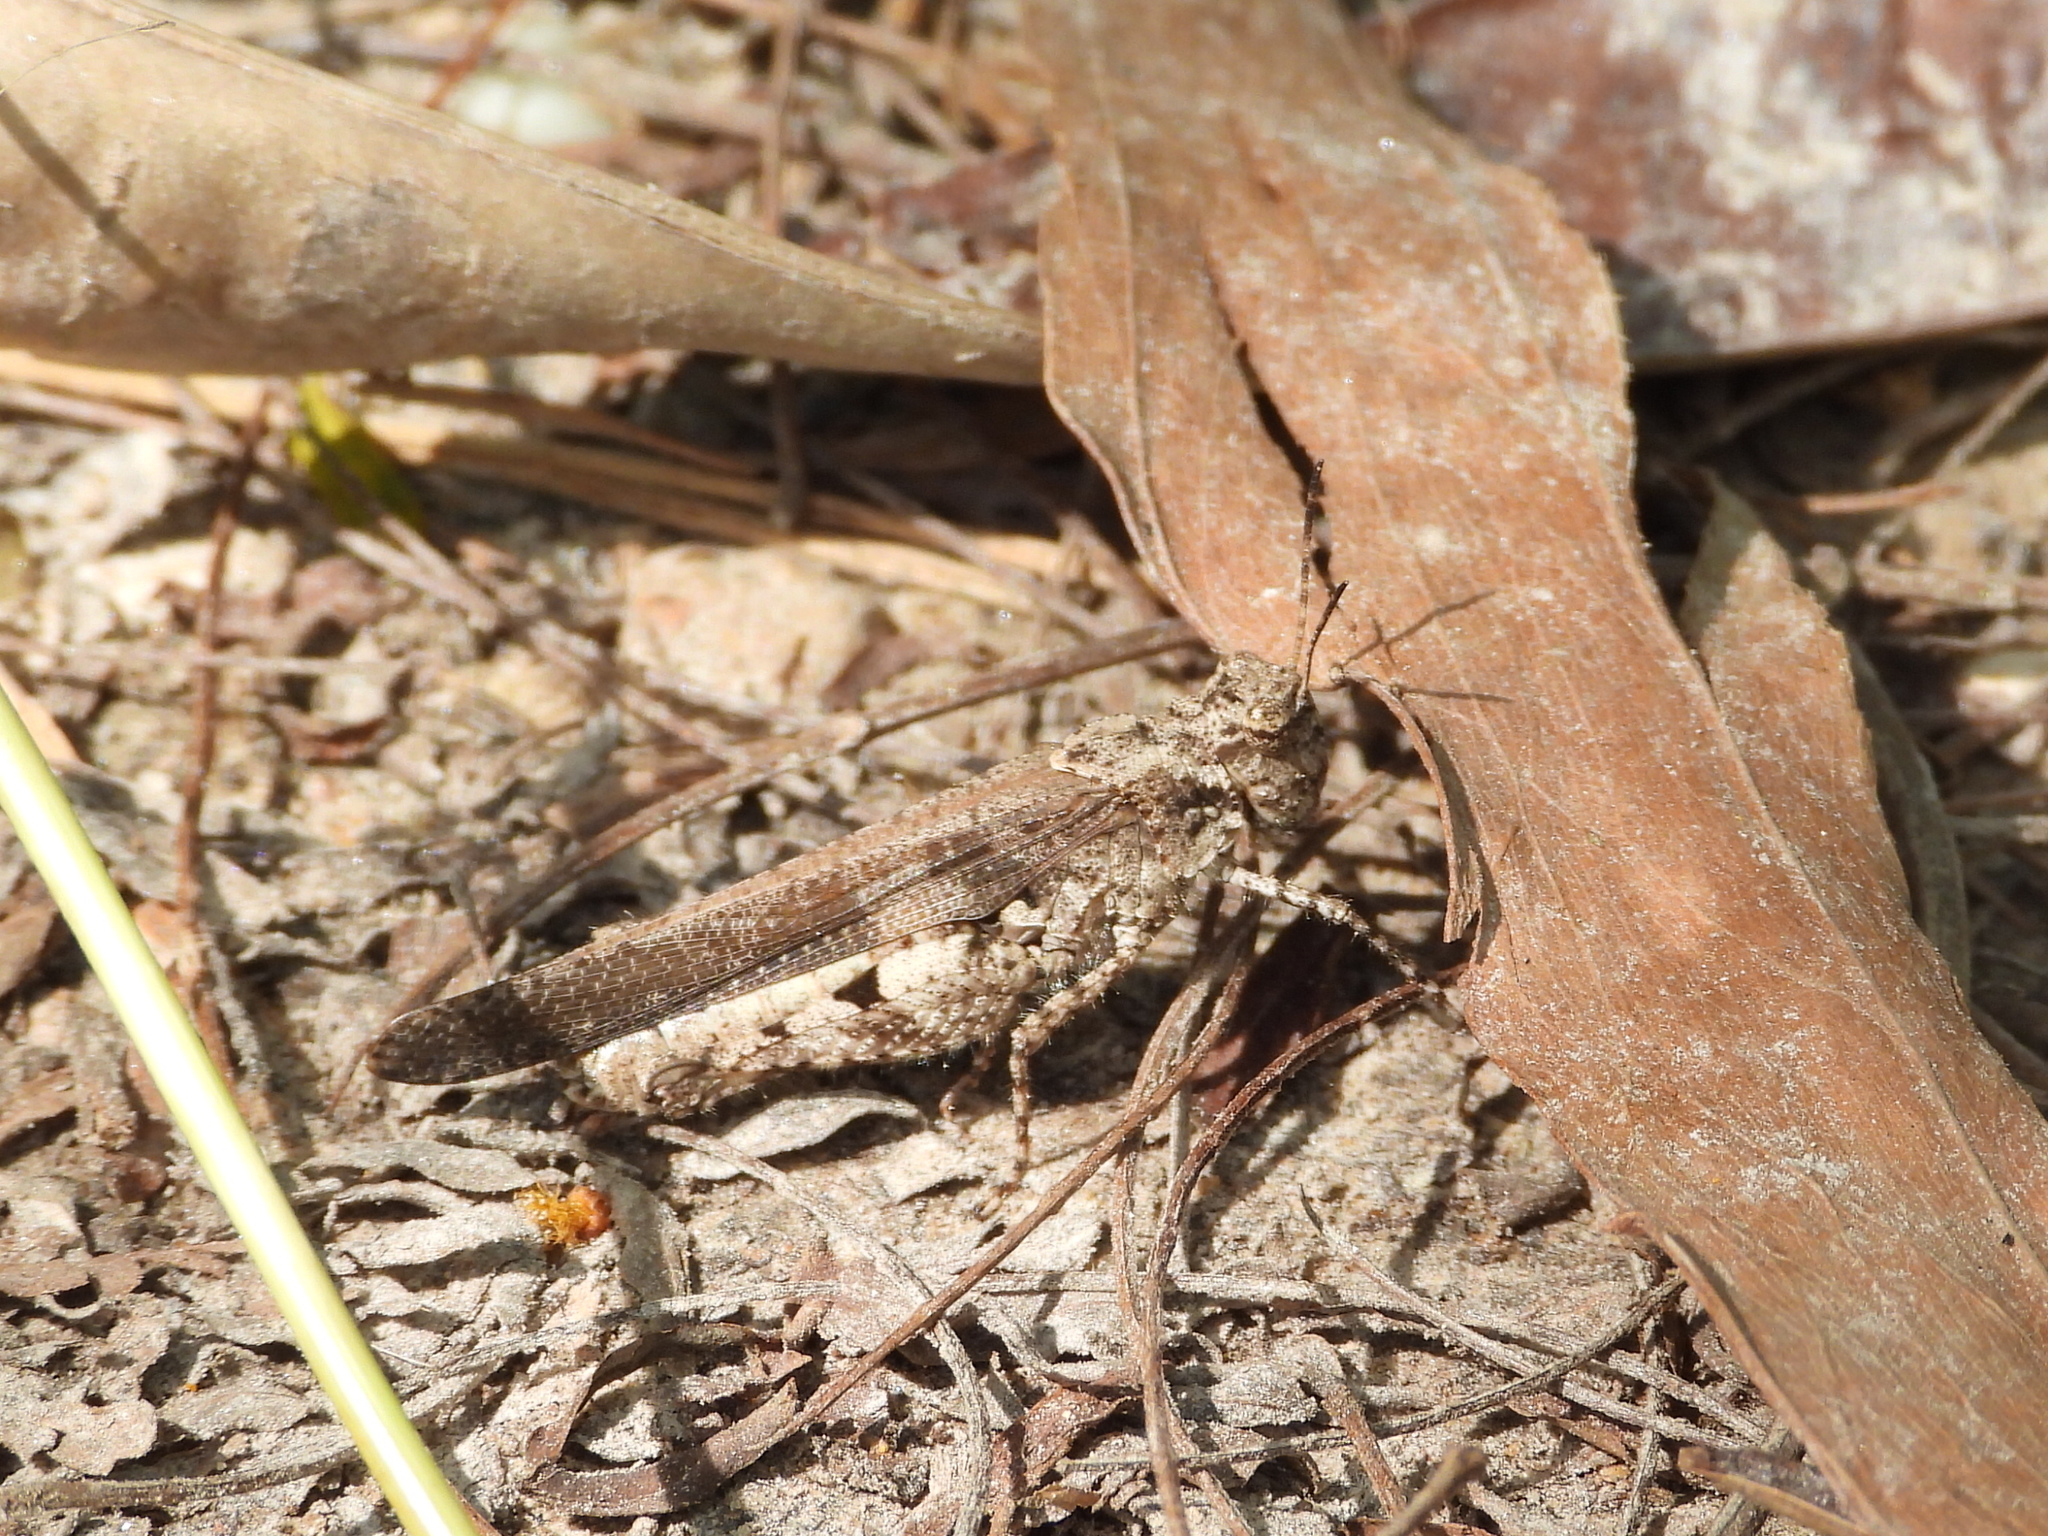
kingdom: Animalia
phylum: Arthropoda
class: Insecta
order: Orthoptera
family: Acrididae
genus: Trilophidia
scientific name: Trilophidia annulata
